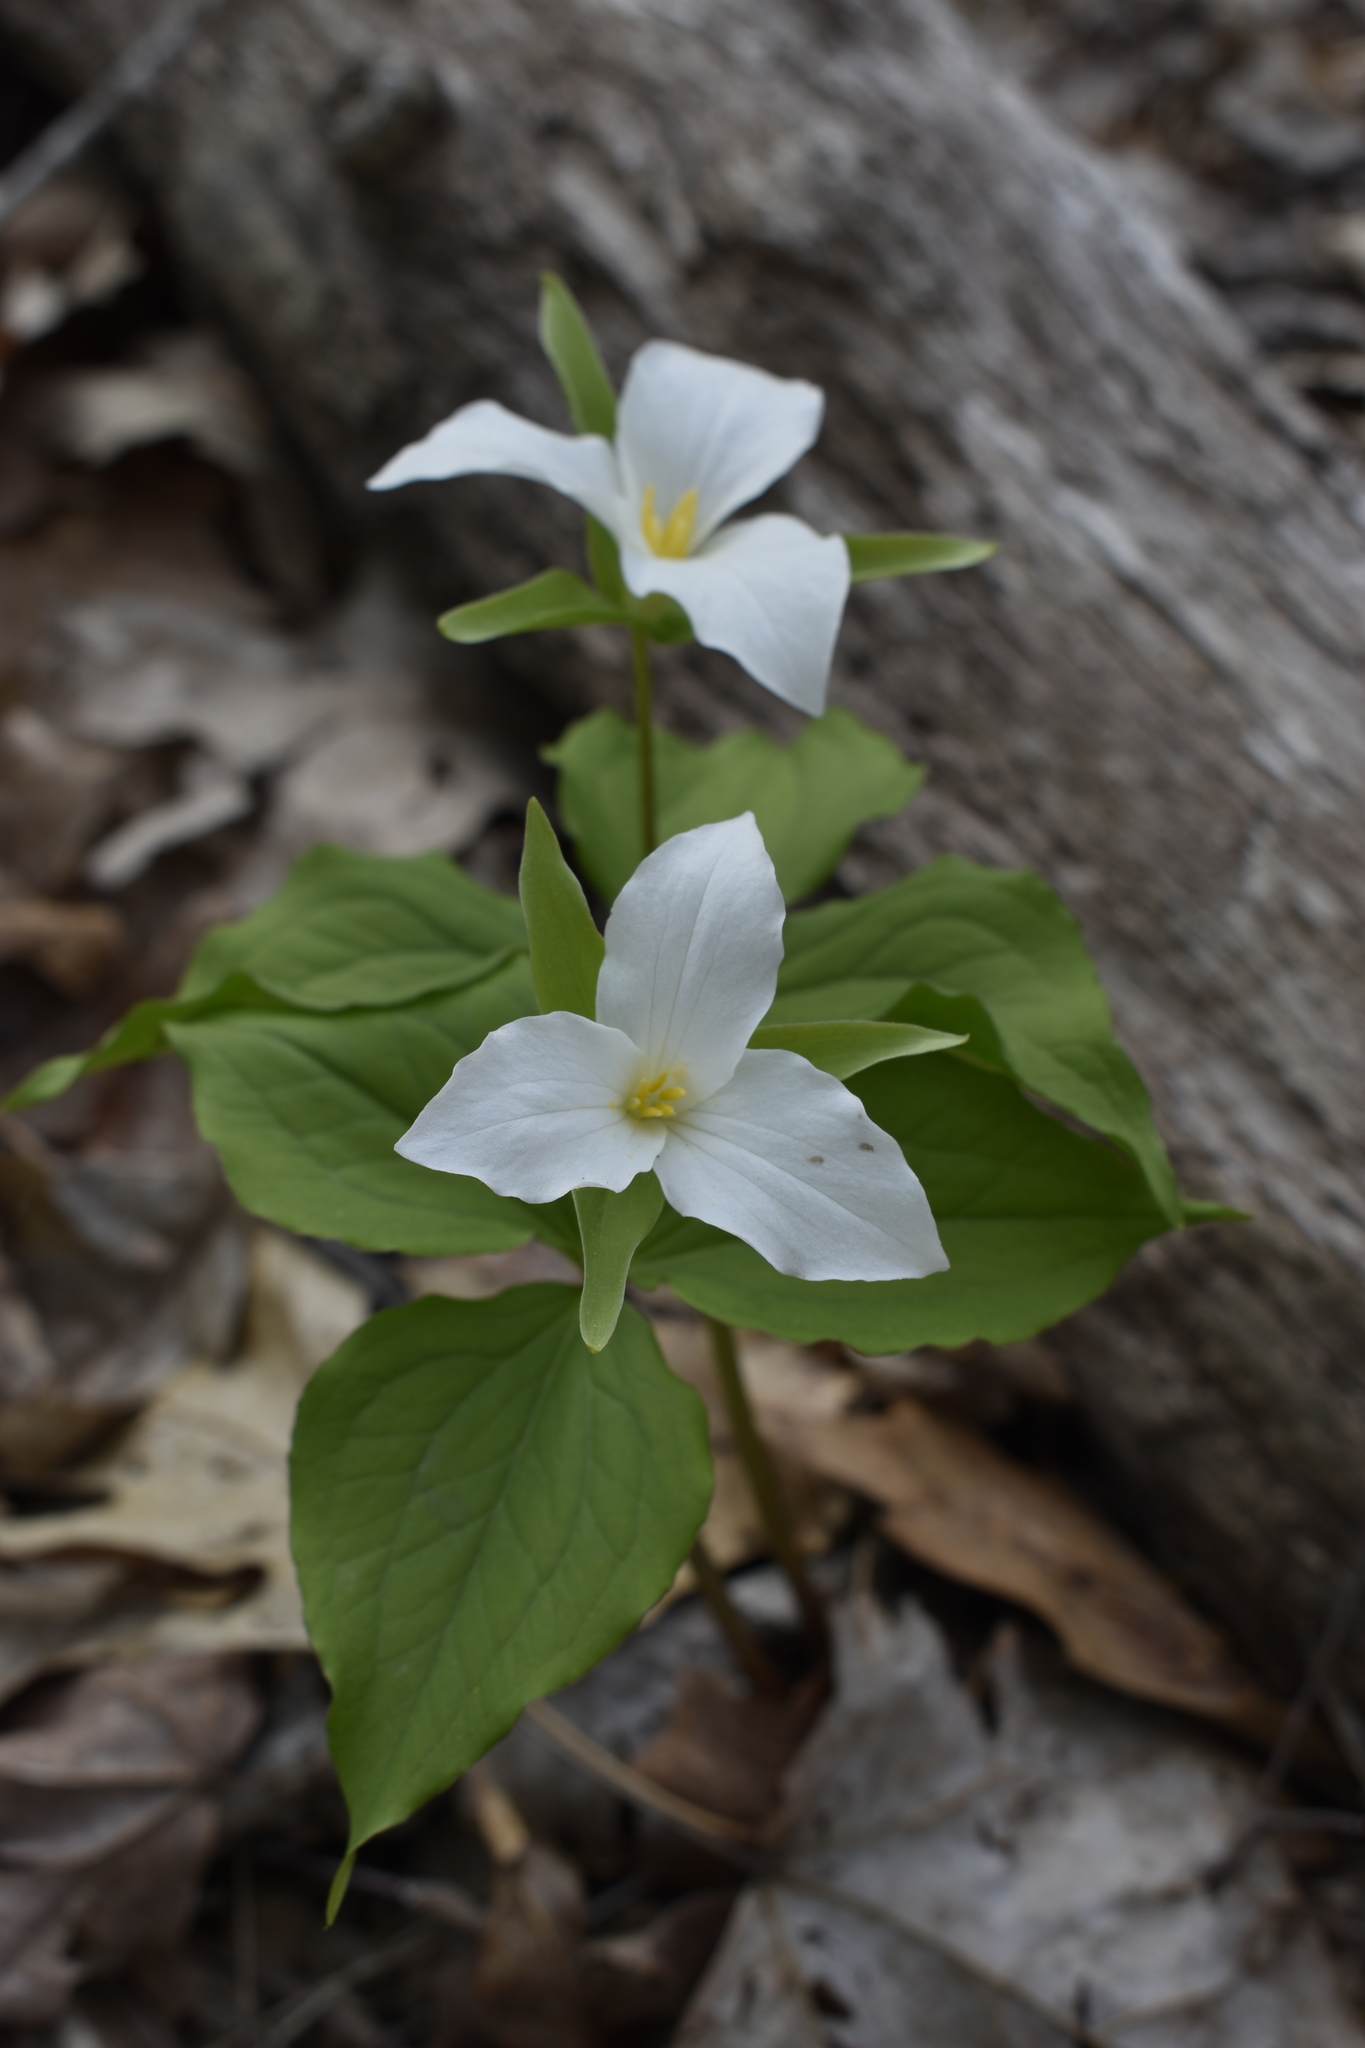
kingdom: Plantae
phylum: Tracheophyta
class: Liliopsida
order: Liliales
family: Melanthiaceae
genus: Trillium
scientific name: Trillium grandiflorum
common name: Great white trillium
